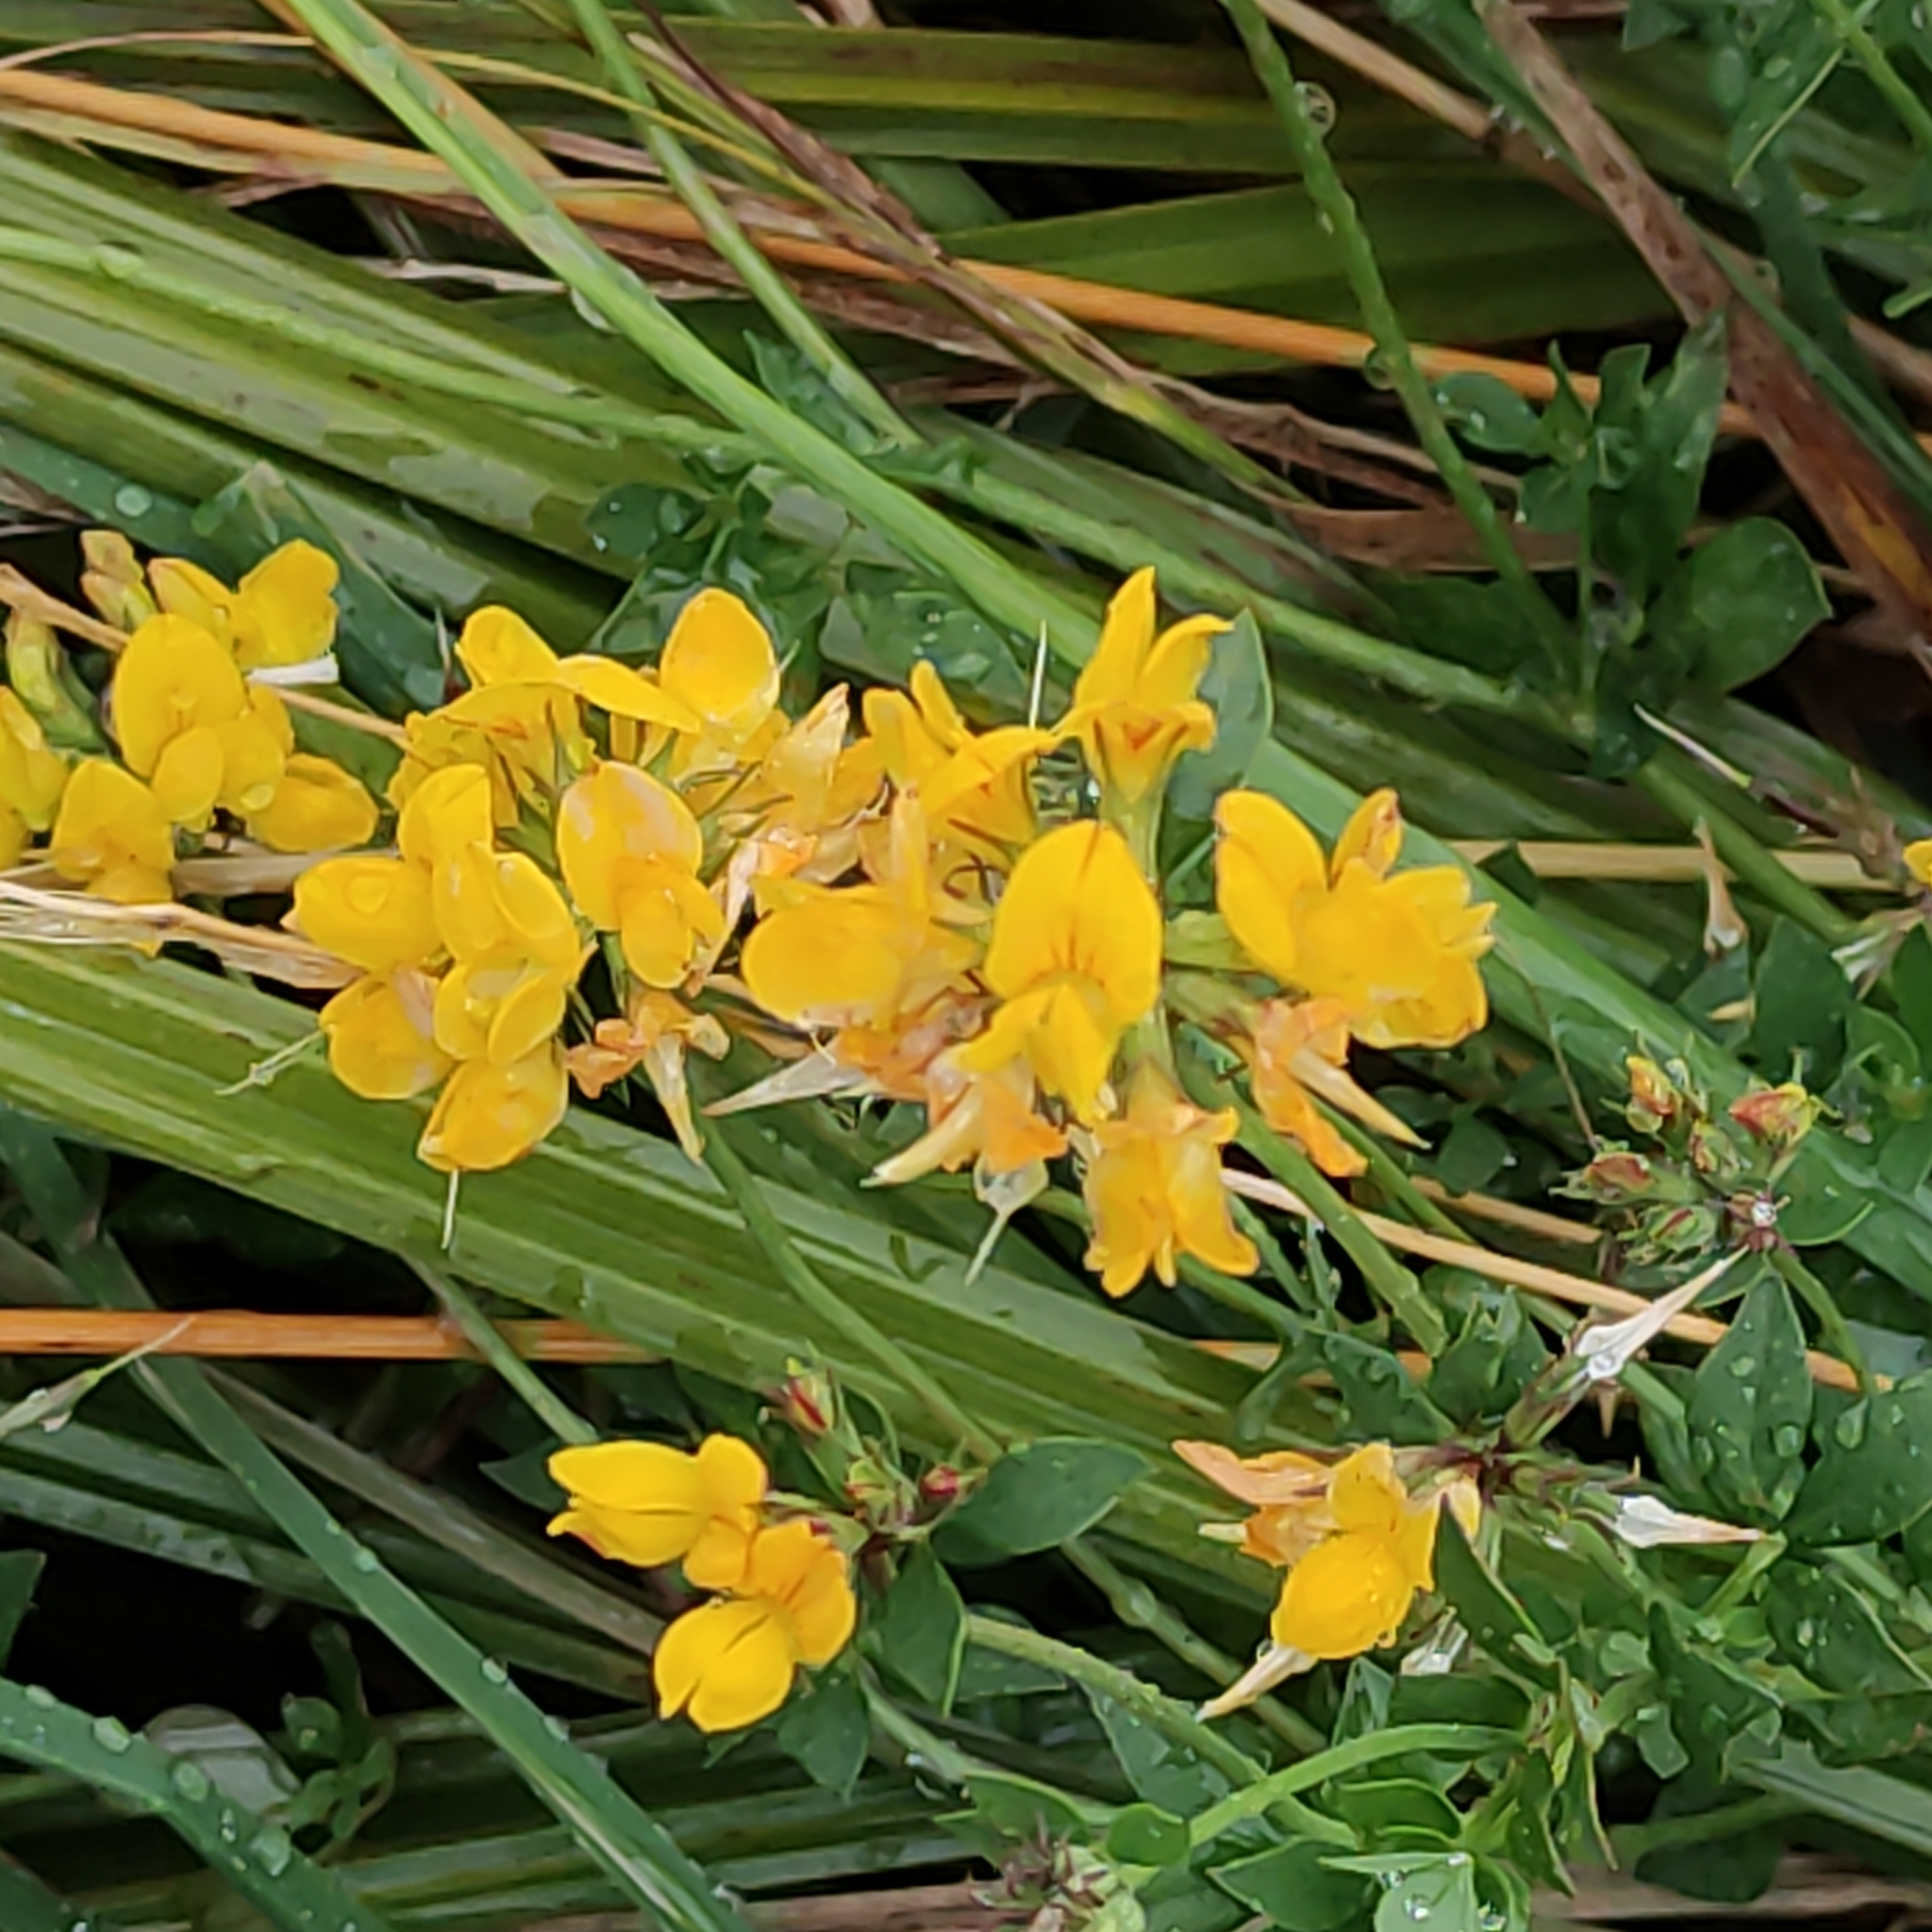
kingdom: Plantae
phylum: Tracheophyta
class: Magnoliopsida
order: Fabales
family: Fabaceae
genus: Lotus
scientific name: Lotus pedunculatus
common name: Greater birdsfoot-trefoil
